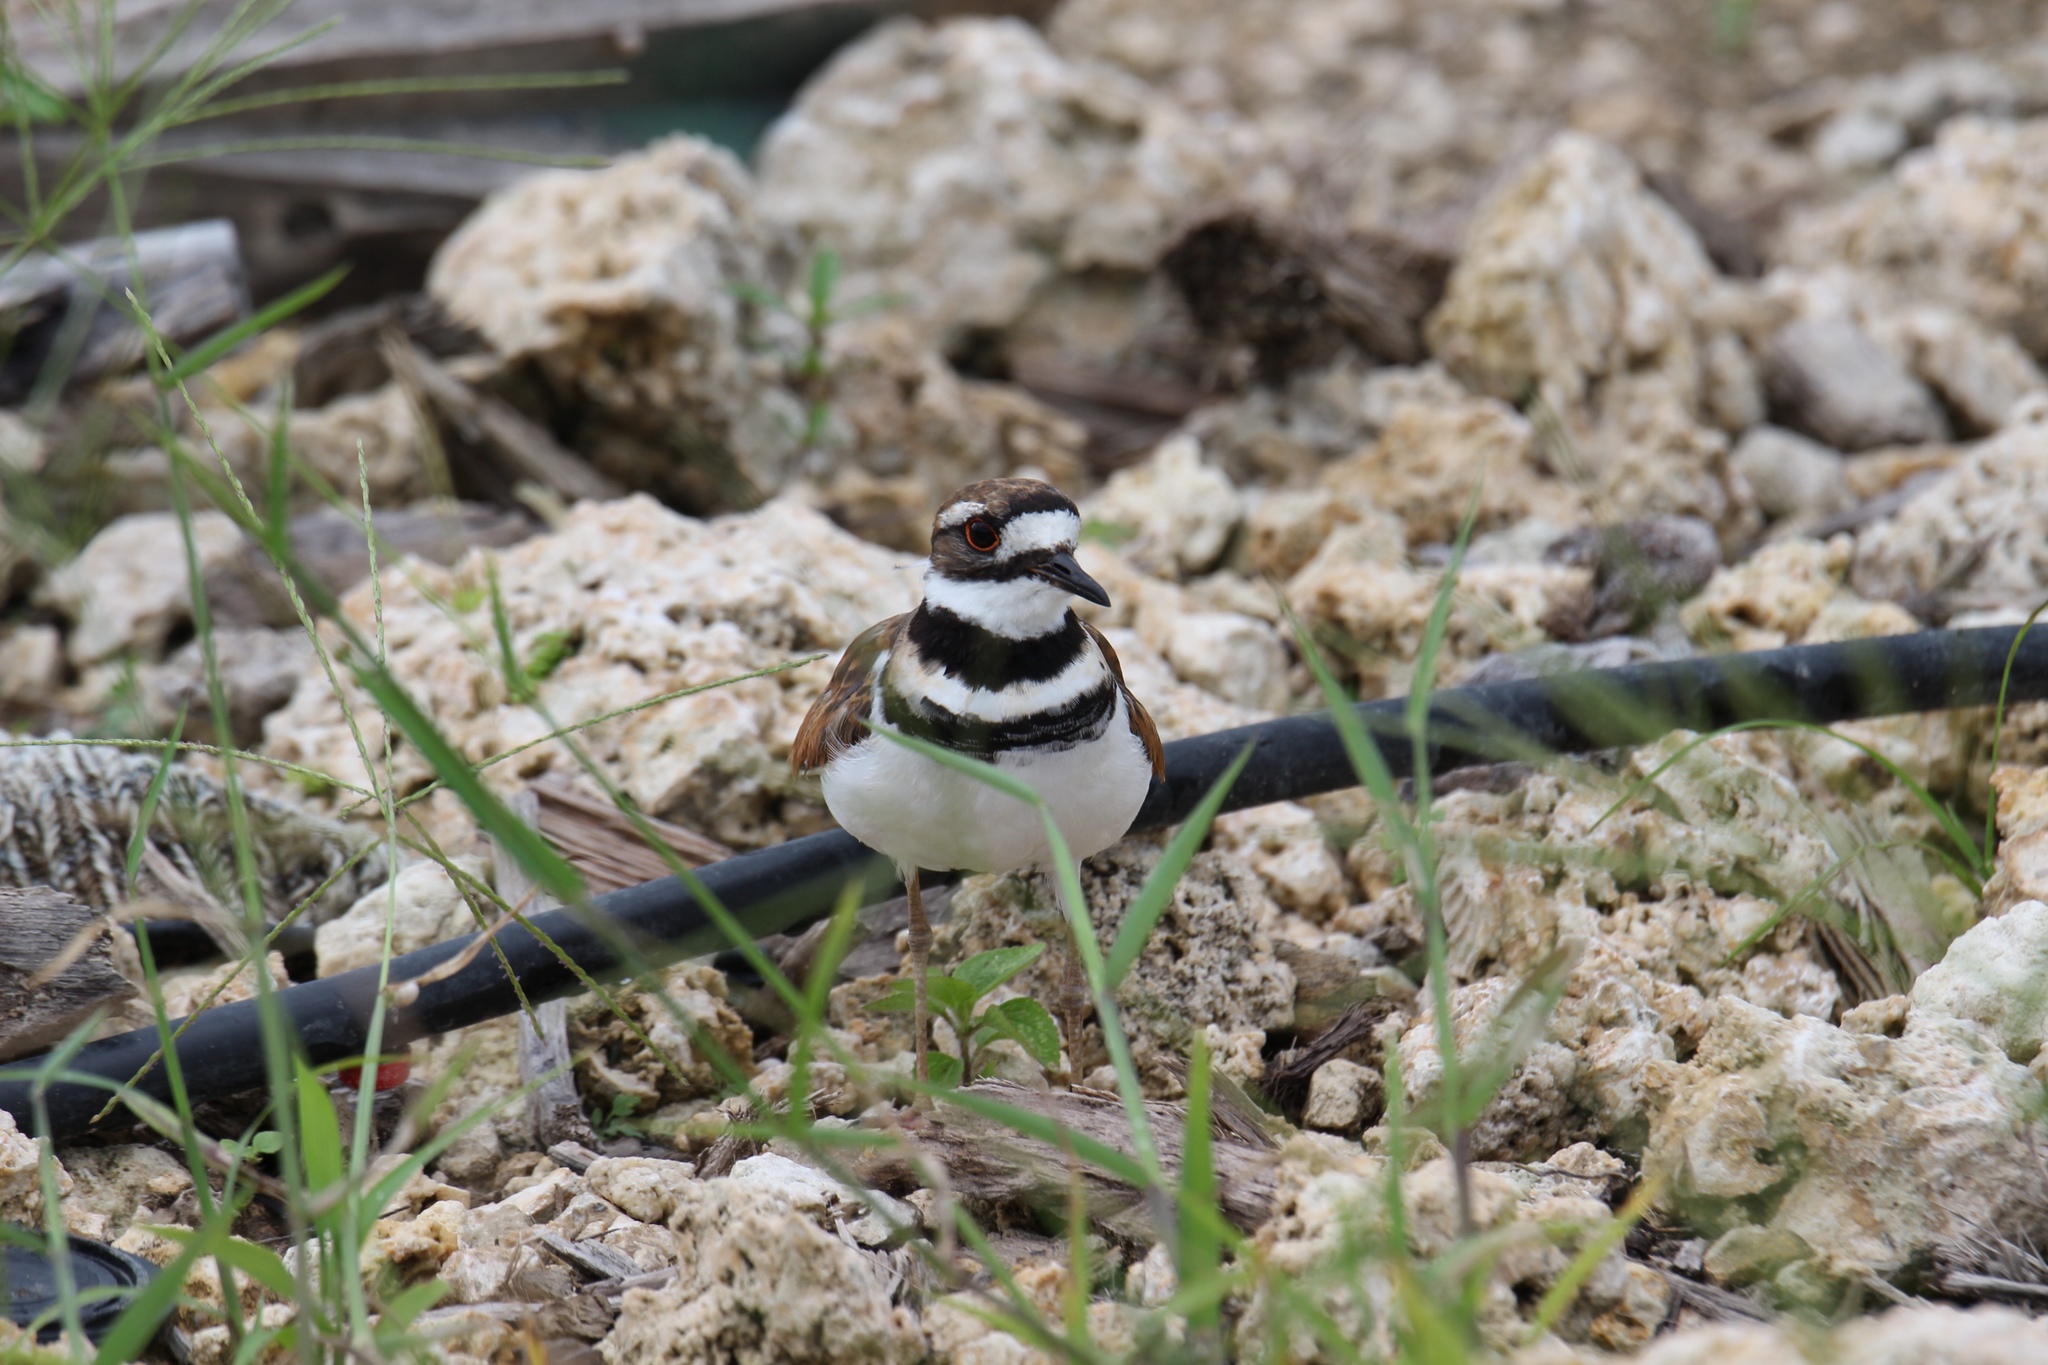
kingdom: Animalia
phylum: Chordata
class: Aves
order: Charadriiformes
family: Charadriidae
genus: Charadrius
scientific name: Charadrius vociferus
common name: Killdeer
